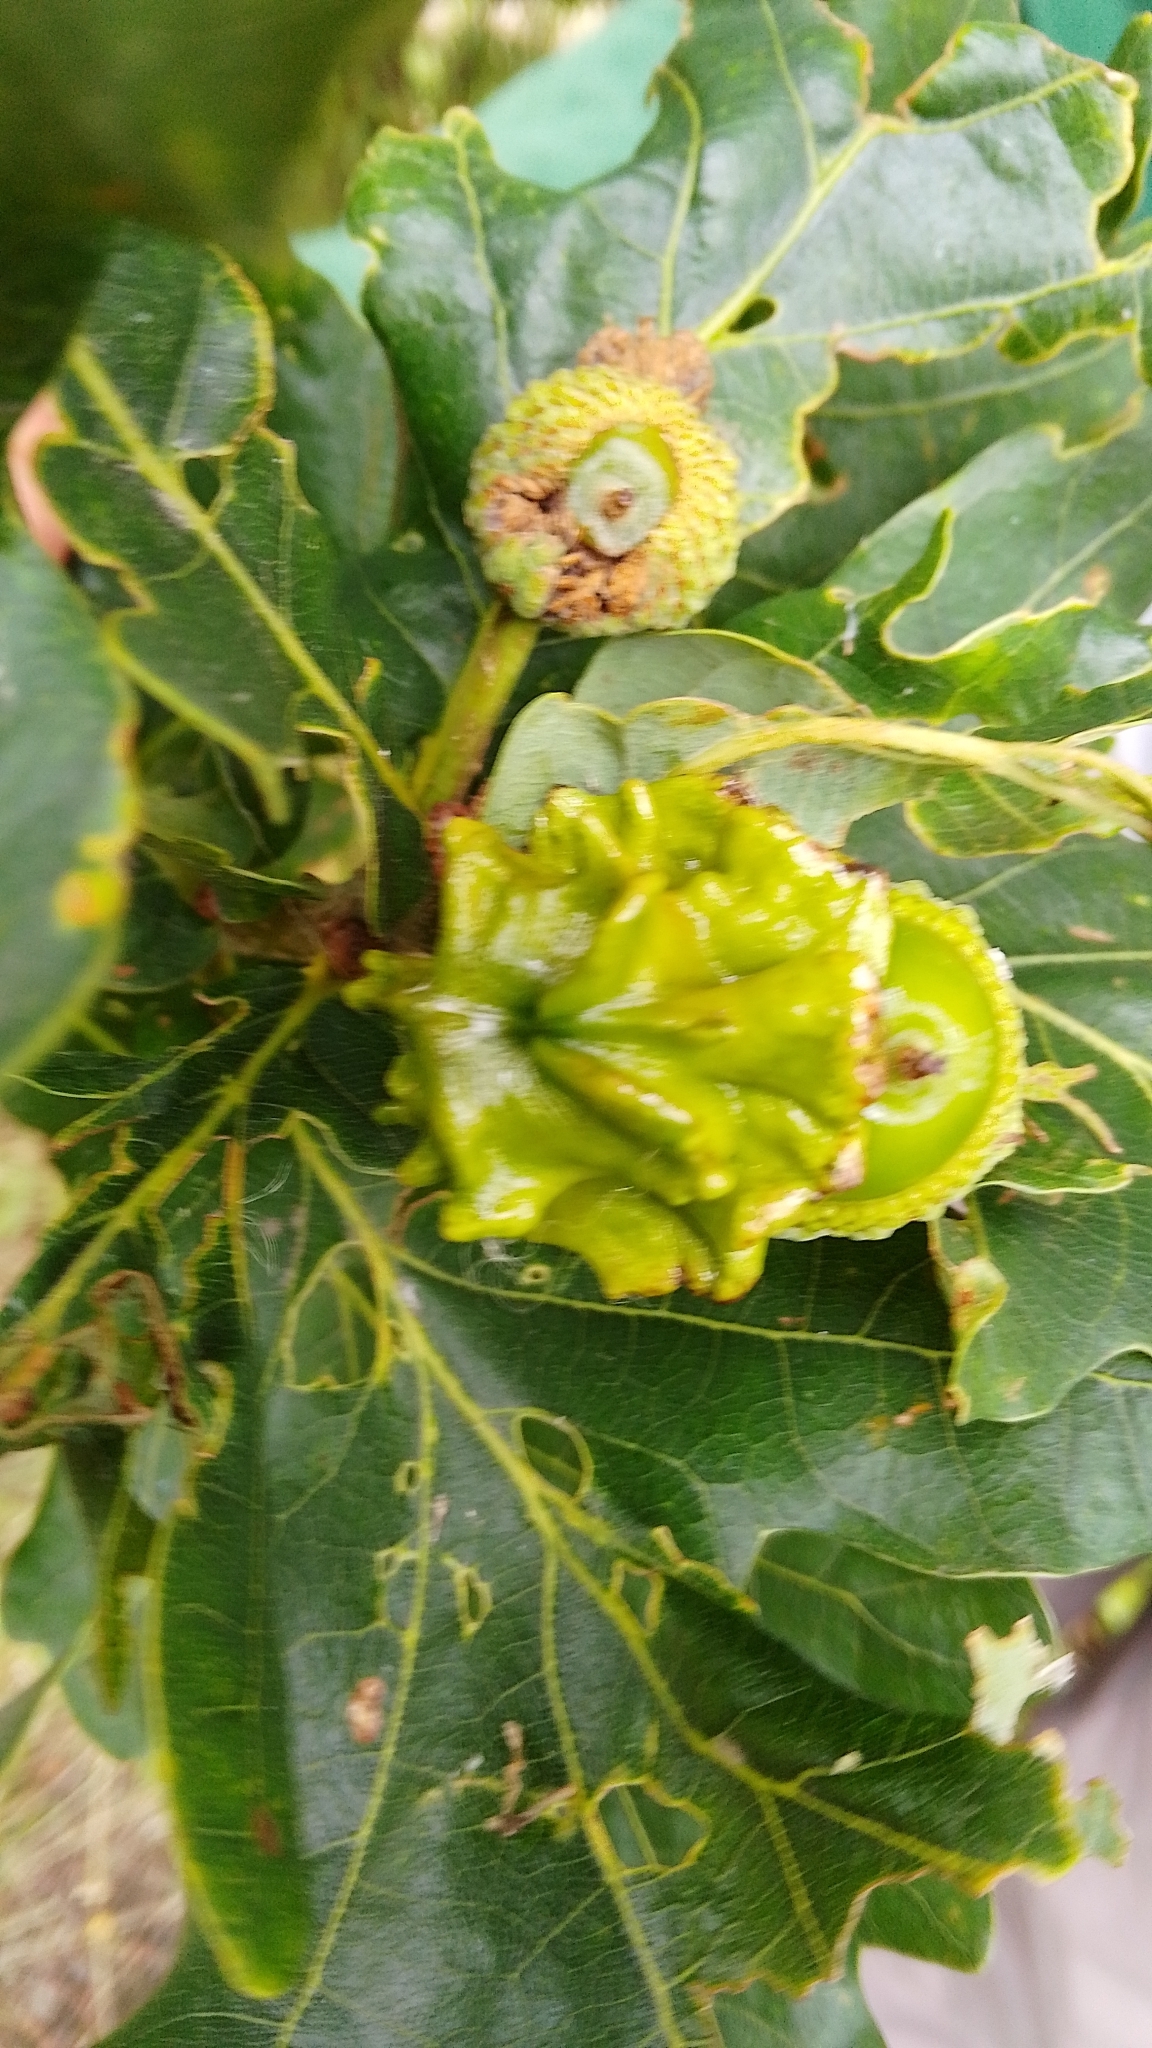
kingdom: Animalia
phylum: Arthropoda
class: Insecta
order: Hymenoptera
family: Cynipidae
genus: Andricus
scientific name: Andricus quercuscalicis
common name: Knopper gall
